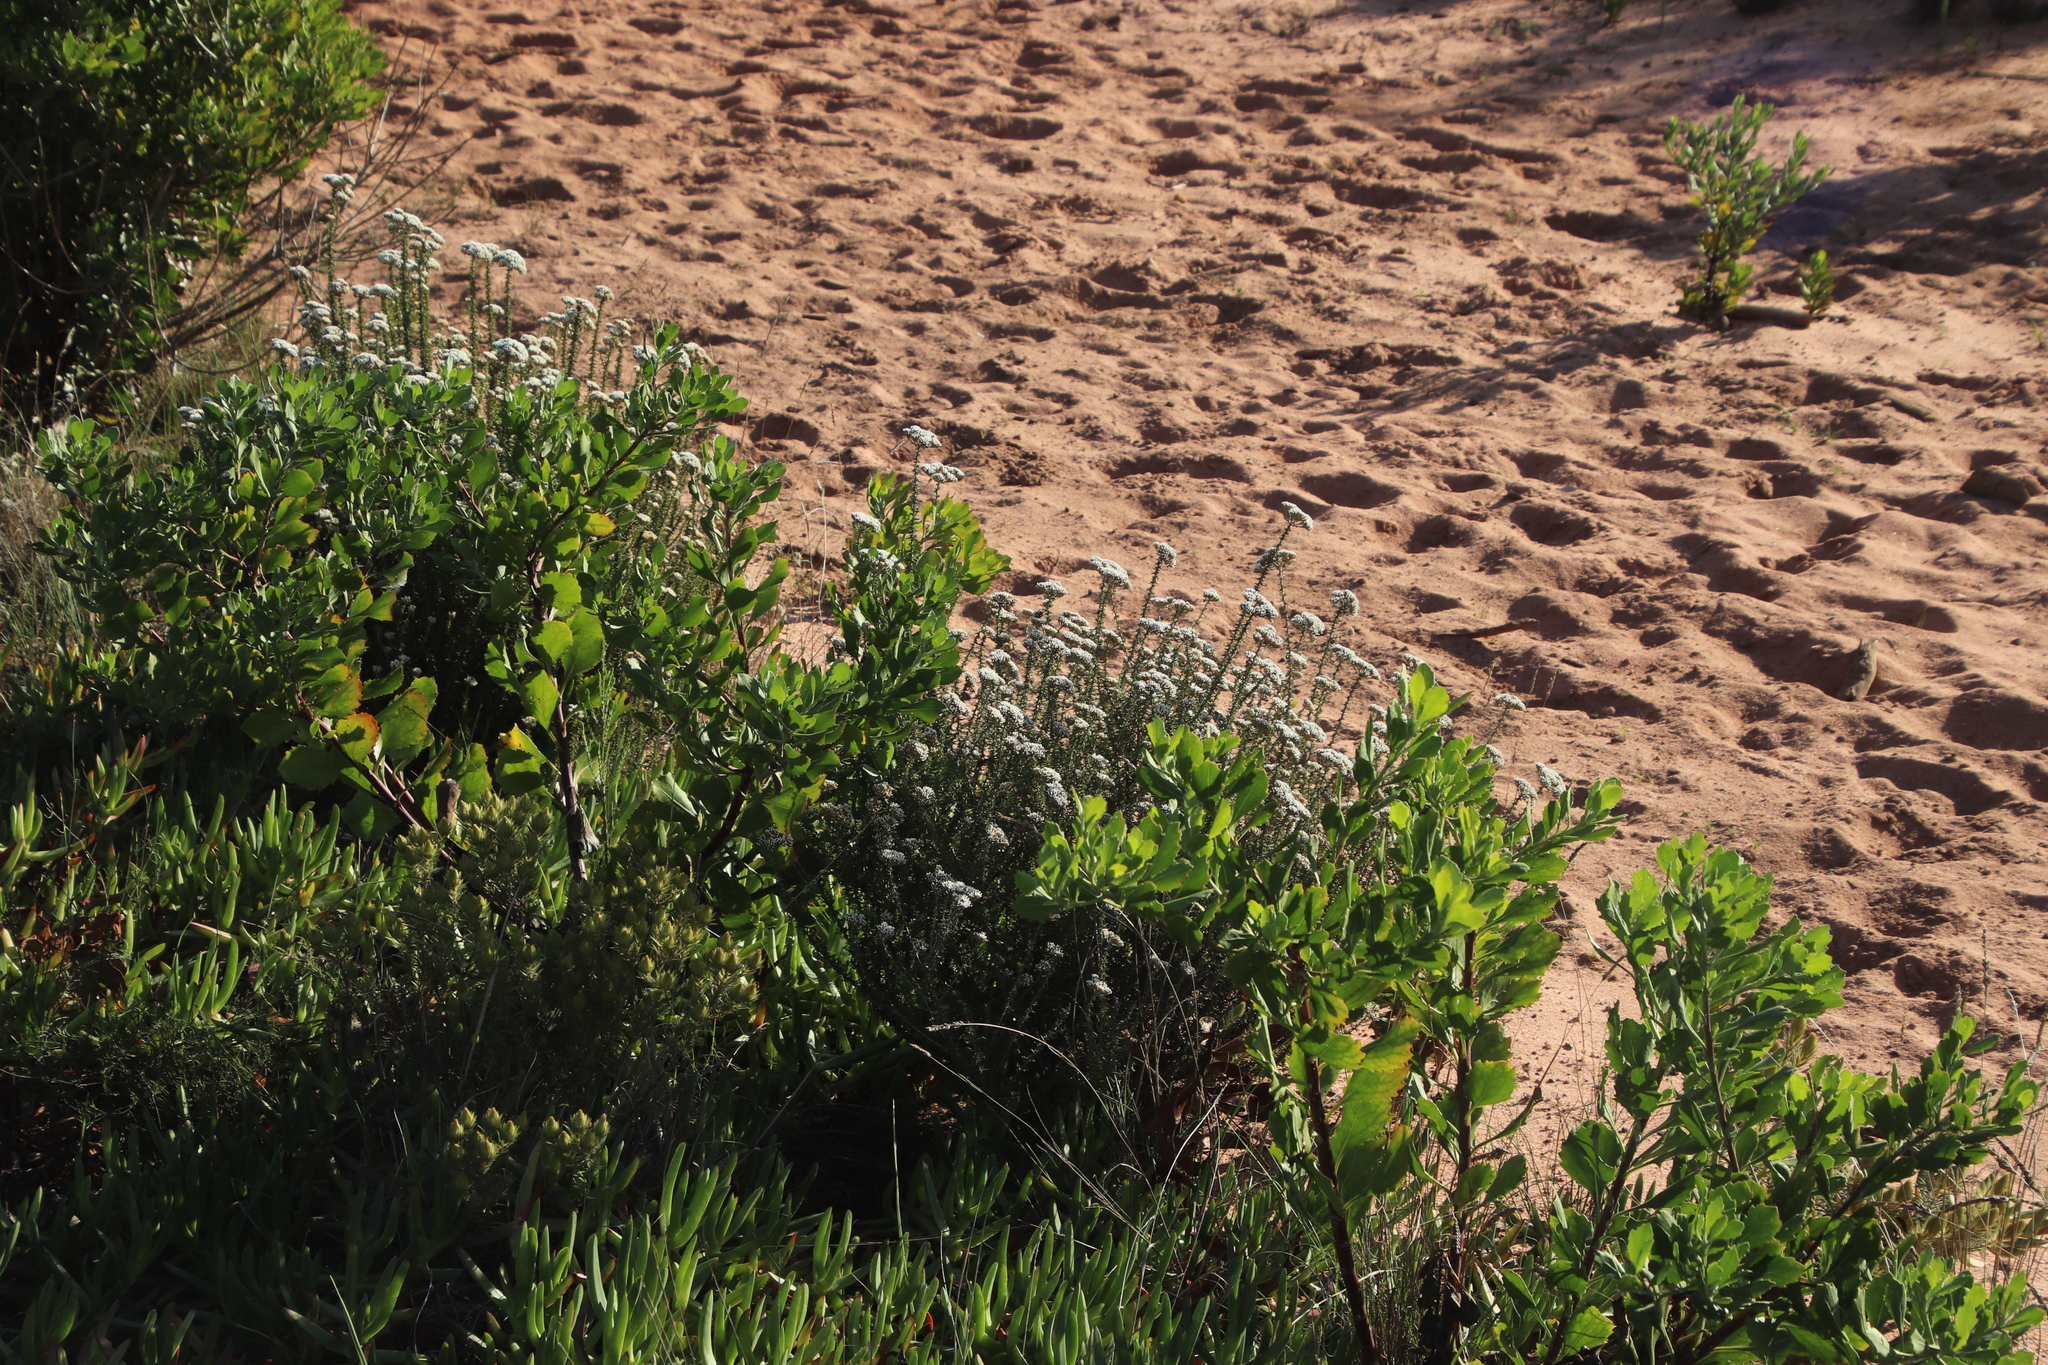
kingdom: Plantae
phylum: Tracheophyta
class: Magnoliopsida
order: Asterales
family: Asteraceae
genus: Osteospermum
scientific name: Osteospermum moniliferum
